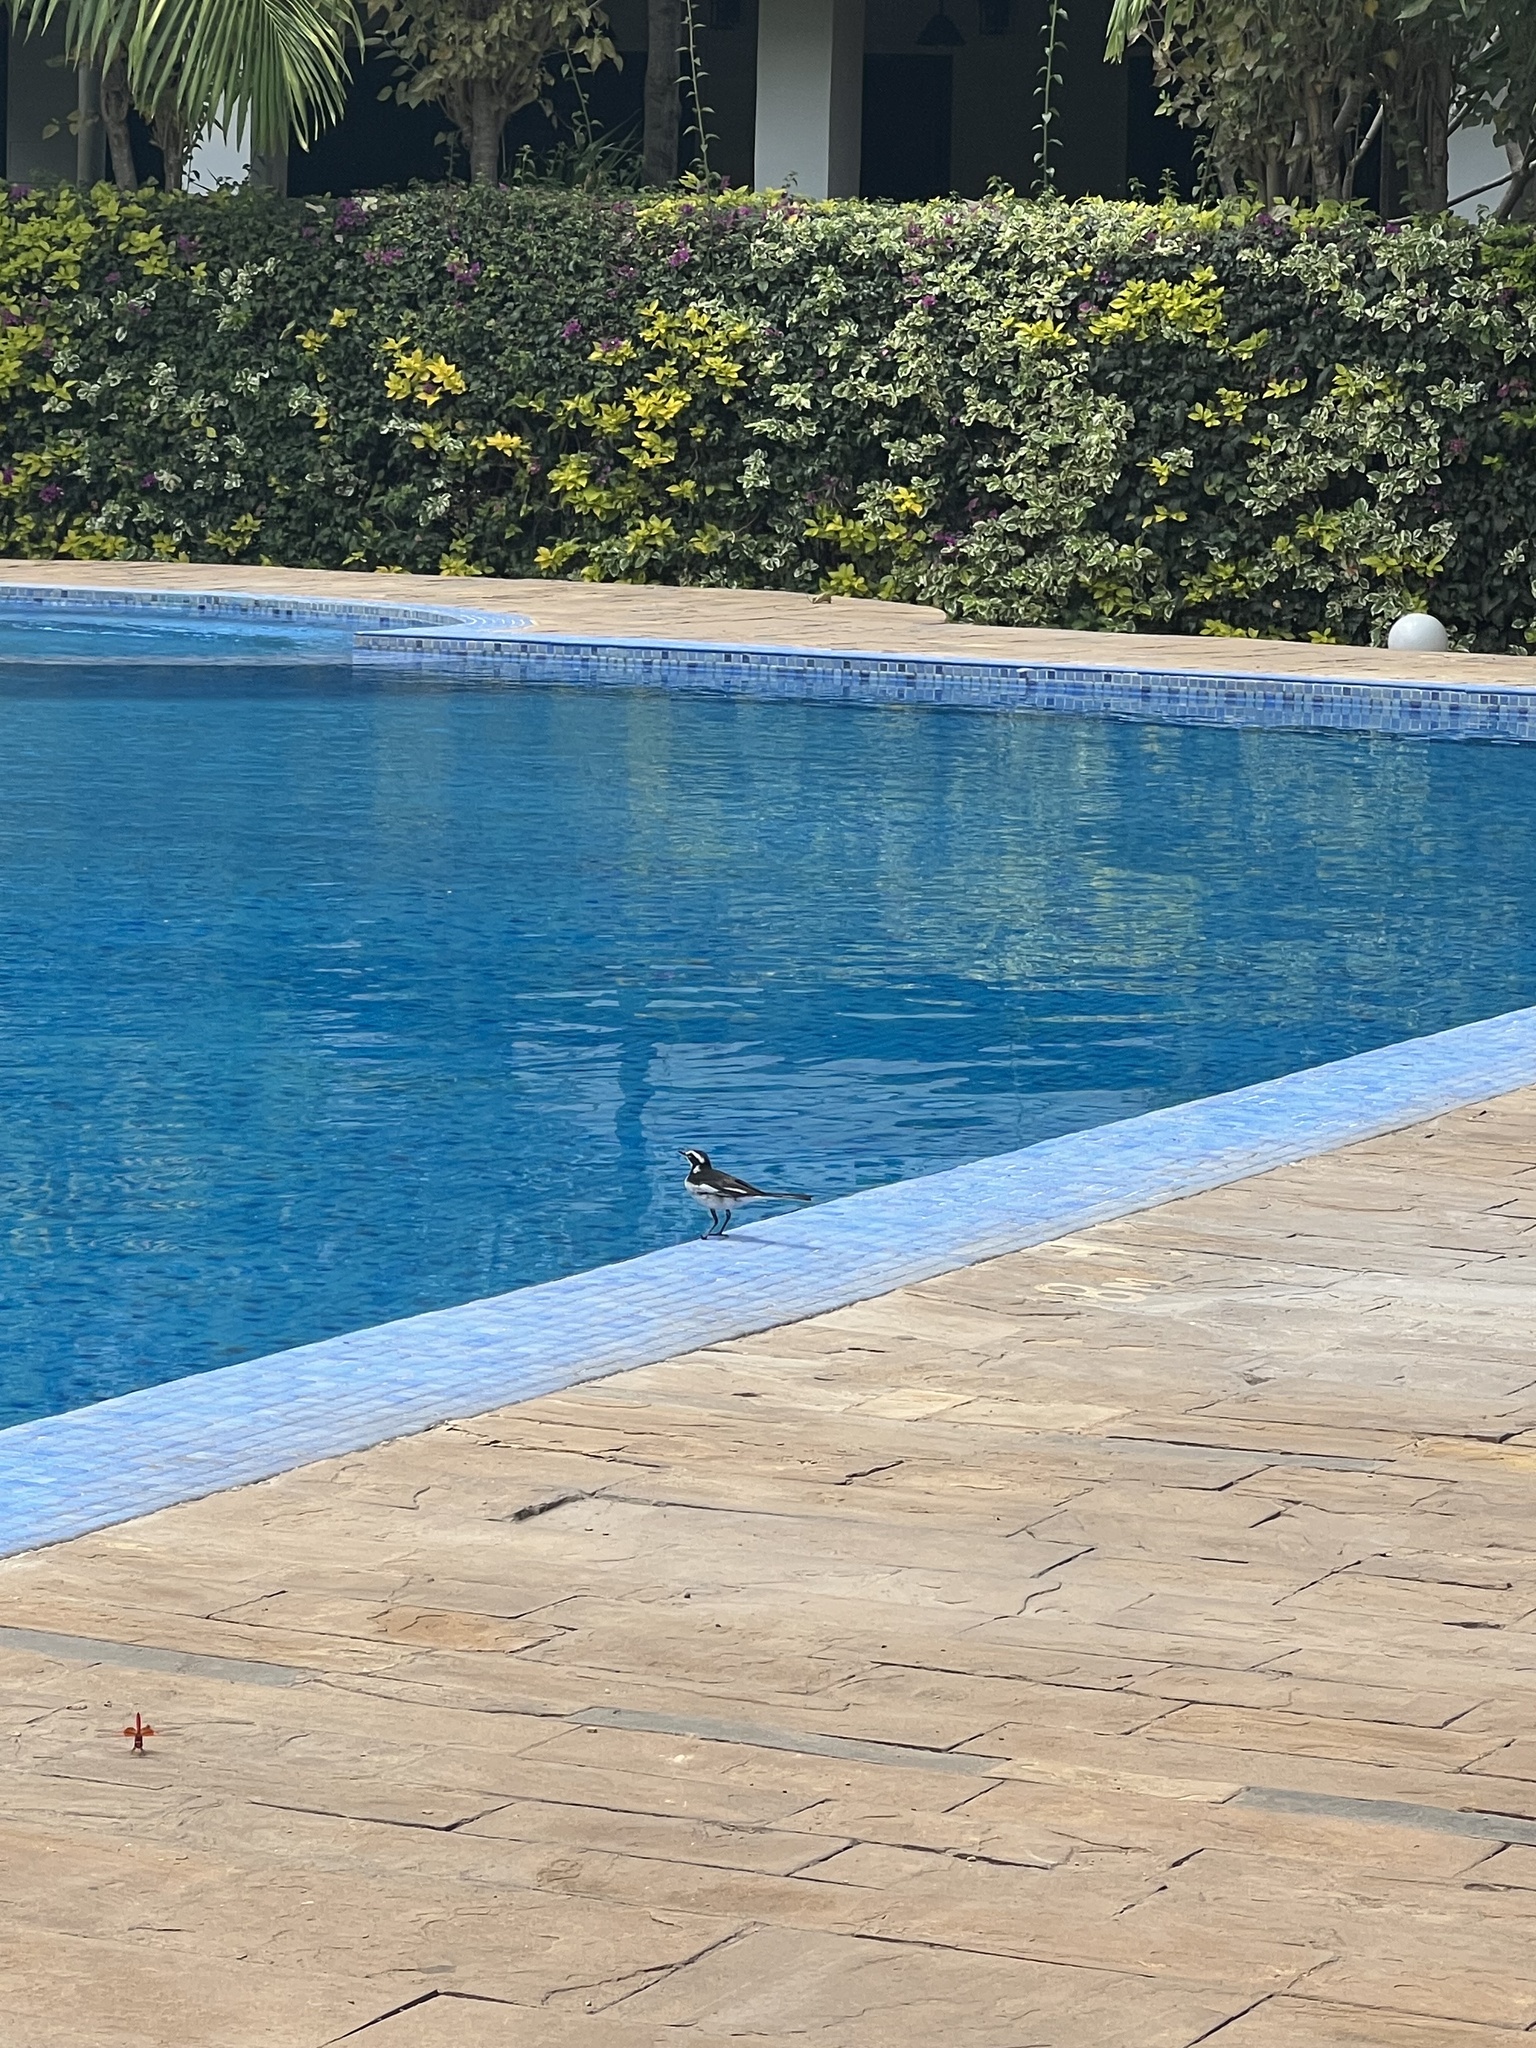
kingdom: Animalia
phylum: Chordata
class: Aves
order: Passeriformes
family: Motacillidae
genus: Motacilla
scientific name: Motacilla aguimp
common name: African pied wagtail
